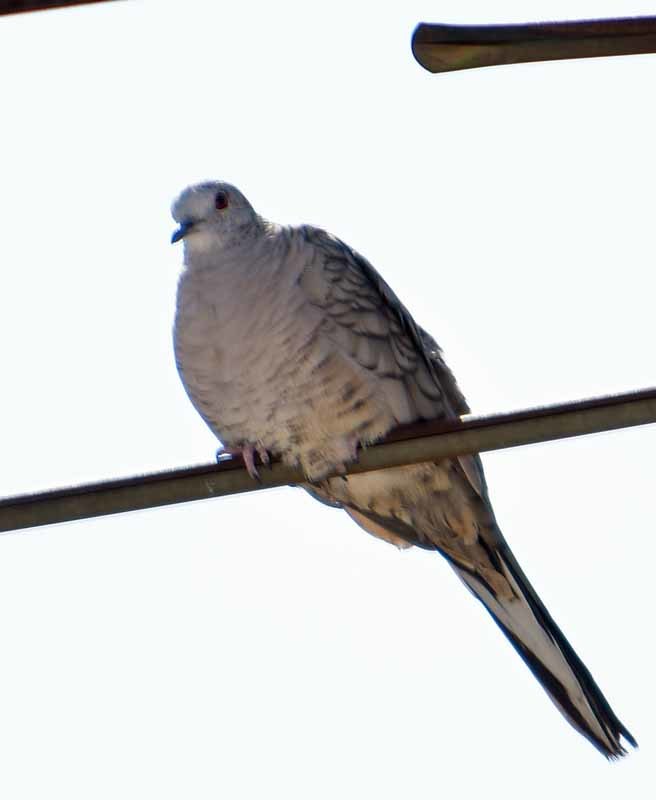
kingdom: Animalia
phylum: Chordata
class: Aves
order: Columbiformes
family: Columbidae
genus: Columbina
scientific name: Columbina inca
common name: Inca dove
